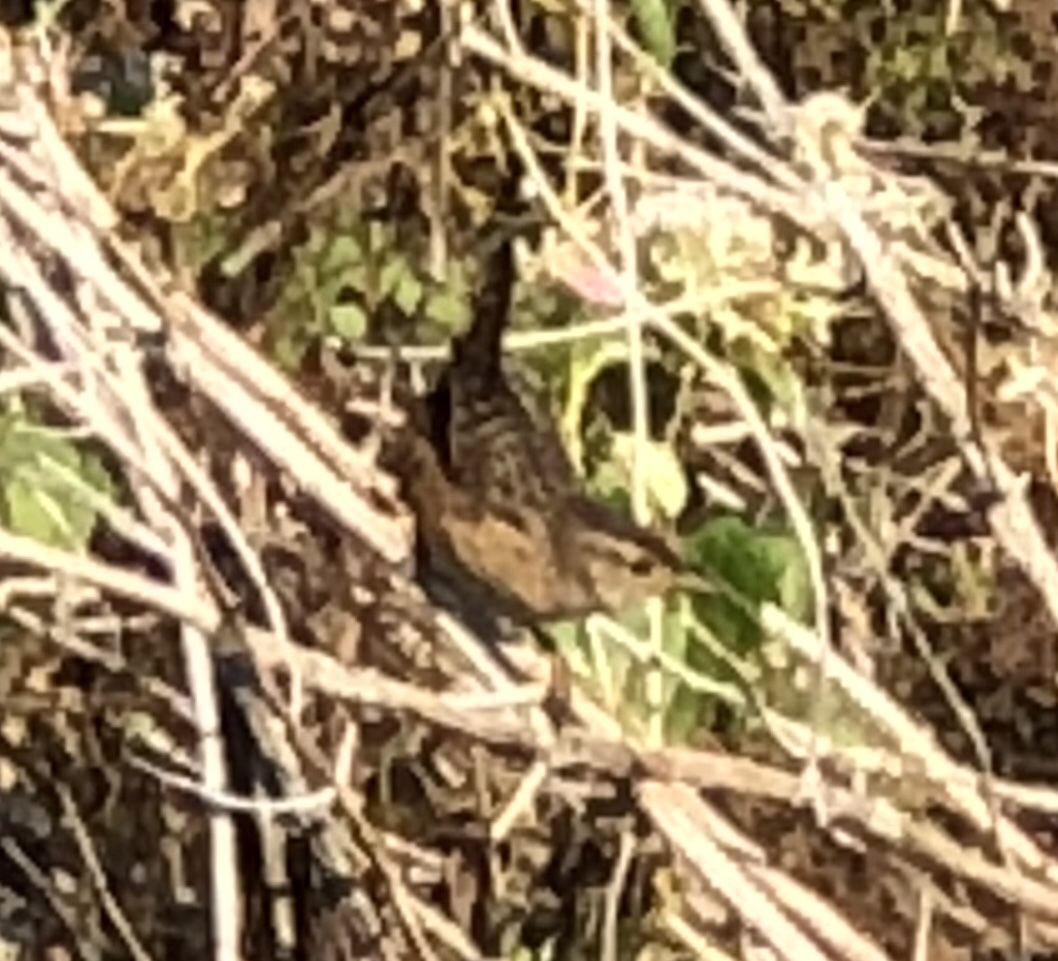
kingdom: Animalia
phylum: Chordata
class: Aves
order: Passeriformes
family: Troglodytidae
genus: Cistothorus
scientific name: Cistothorus palustris
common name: Marsh wren
